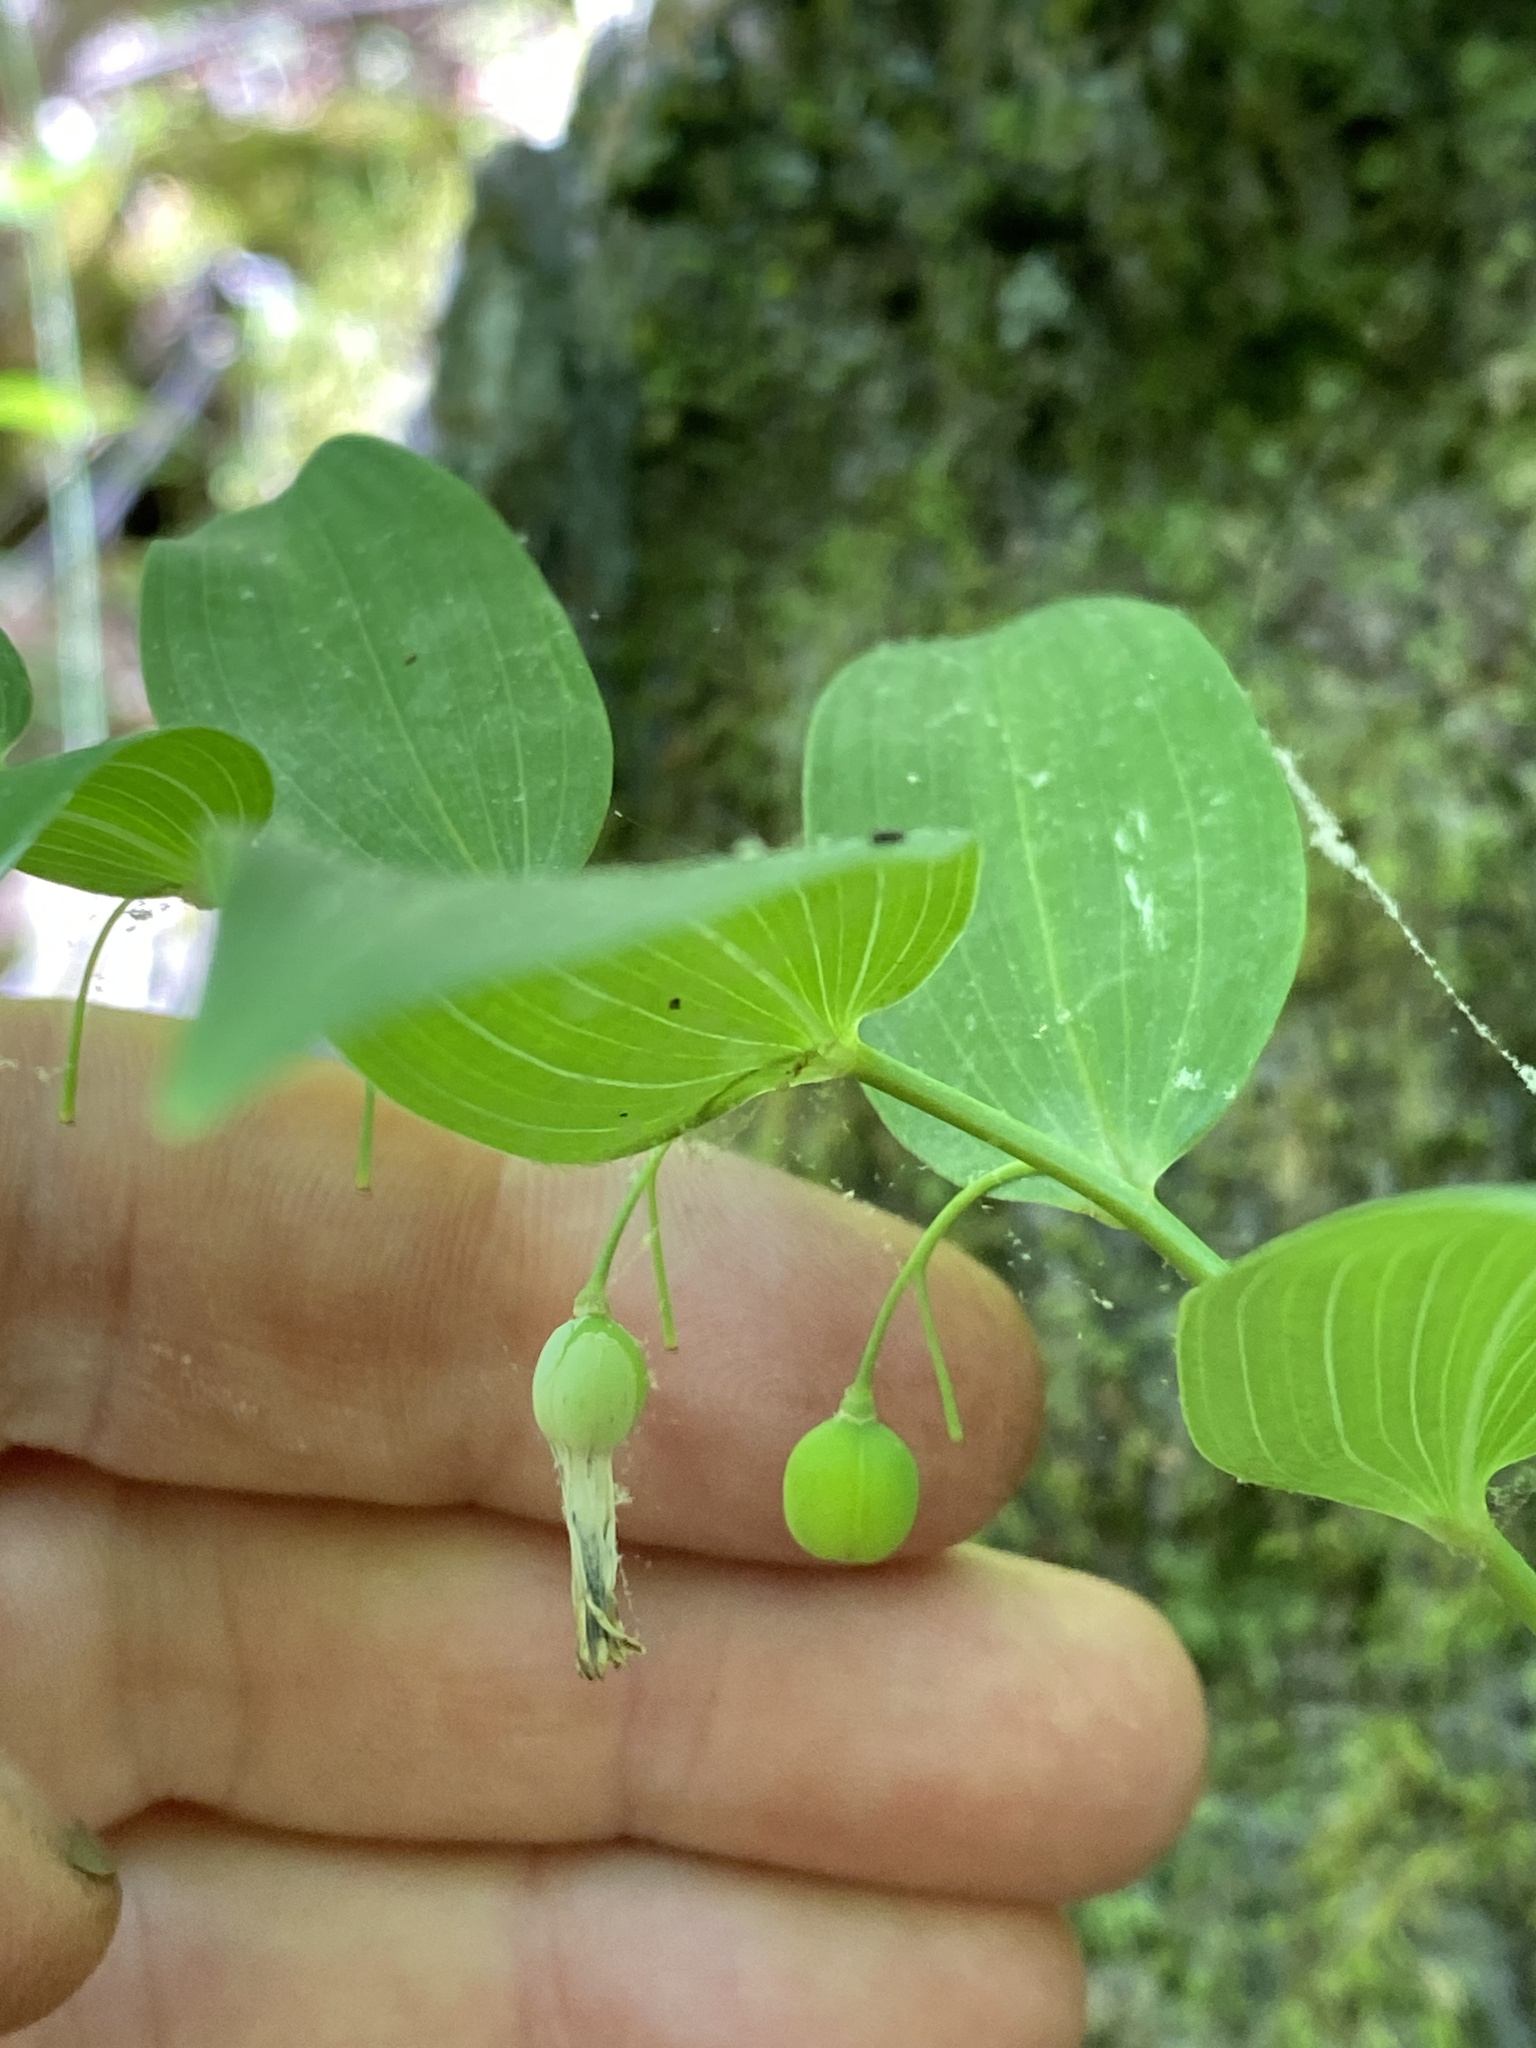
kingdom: Plantae
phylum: Tracheophyta
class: Liliopsida
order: Asparagales
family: Asparagaceae
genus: Polygonatum
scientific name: Polygonatum biflorum
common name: American solomon's-seal
